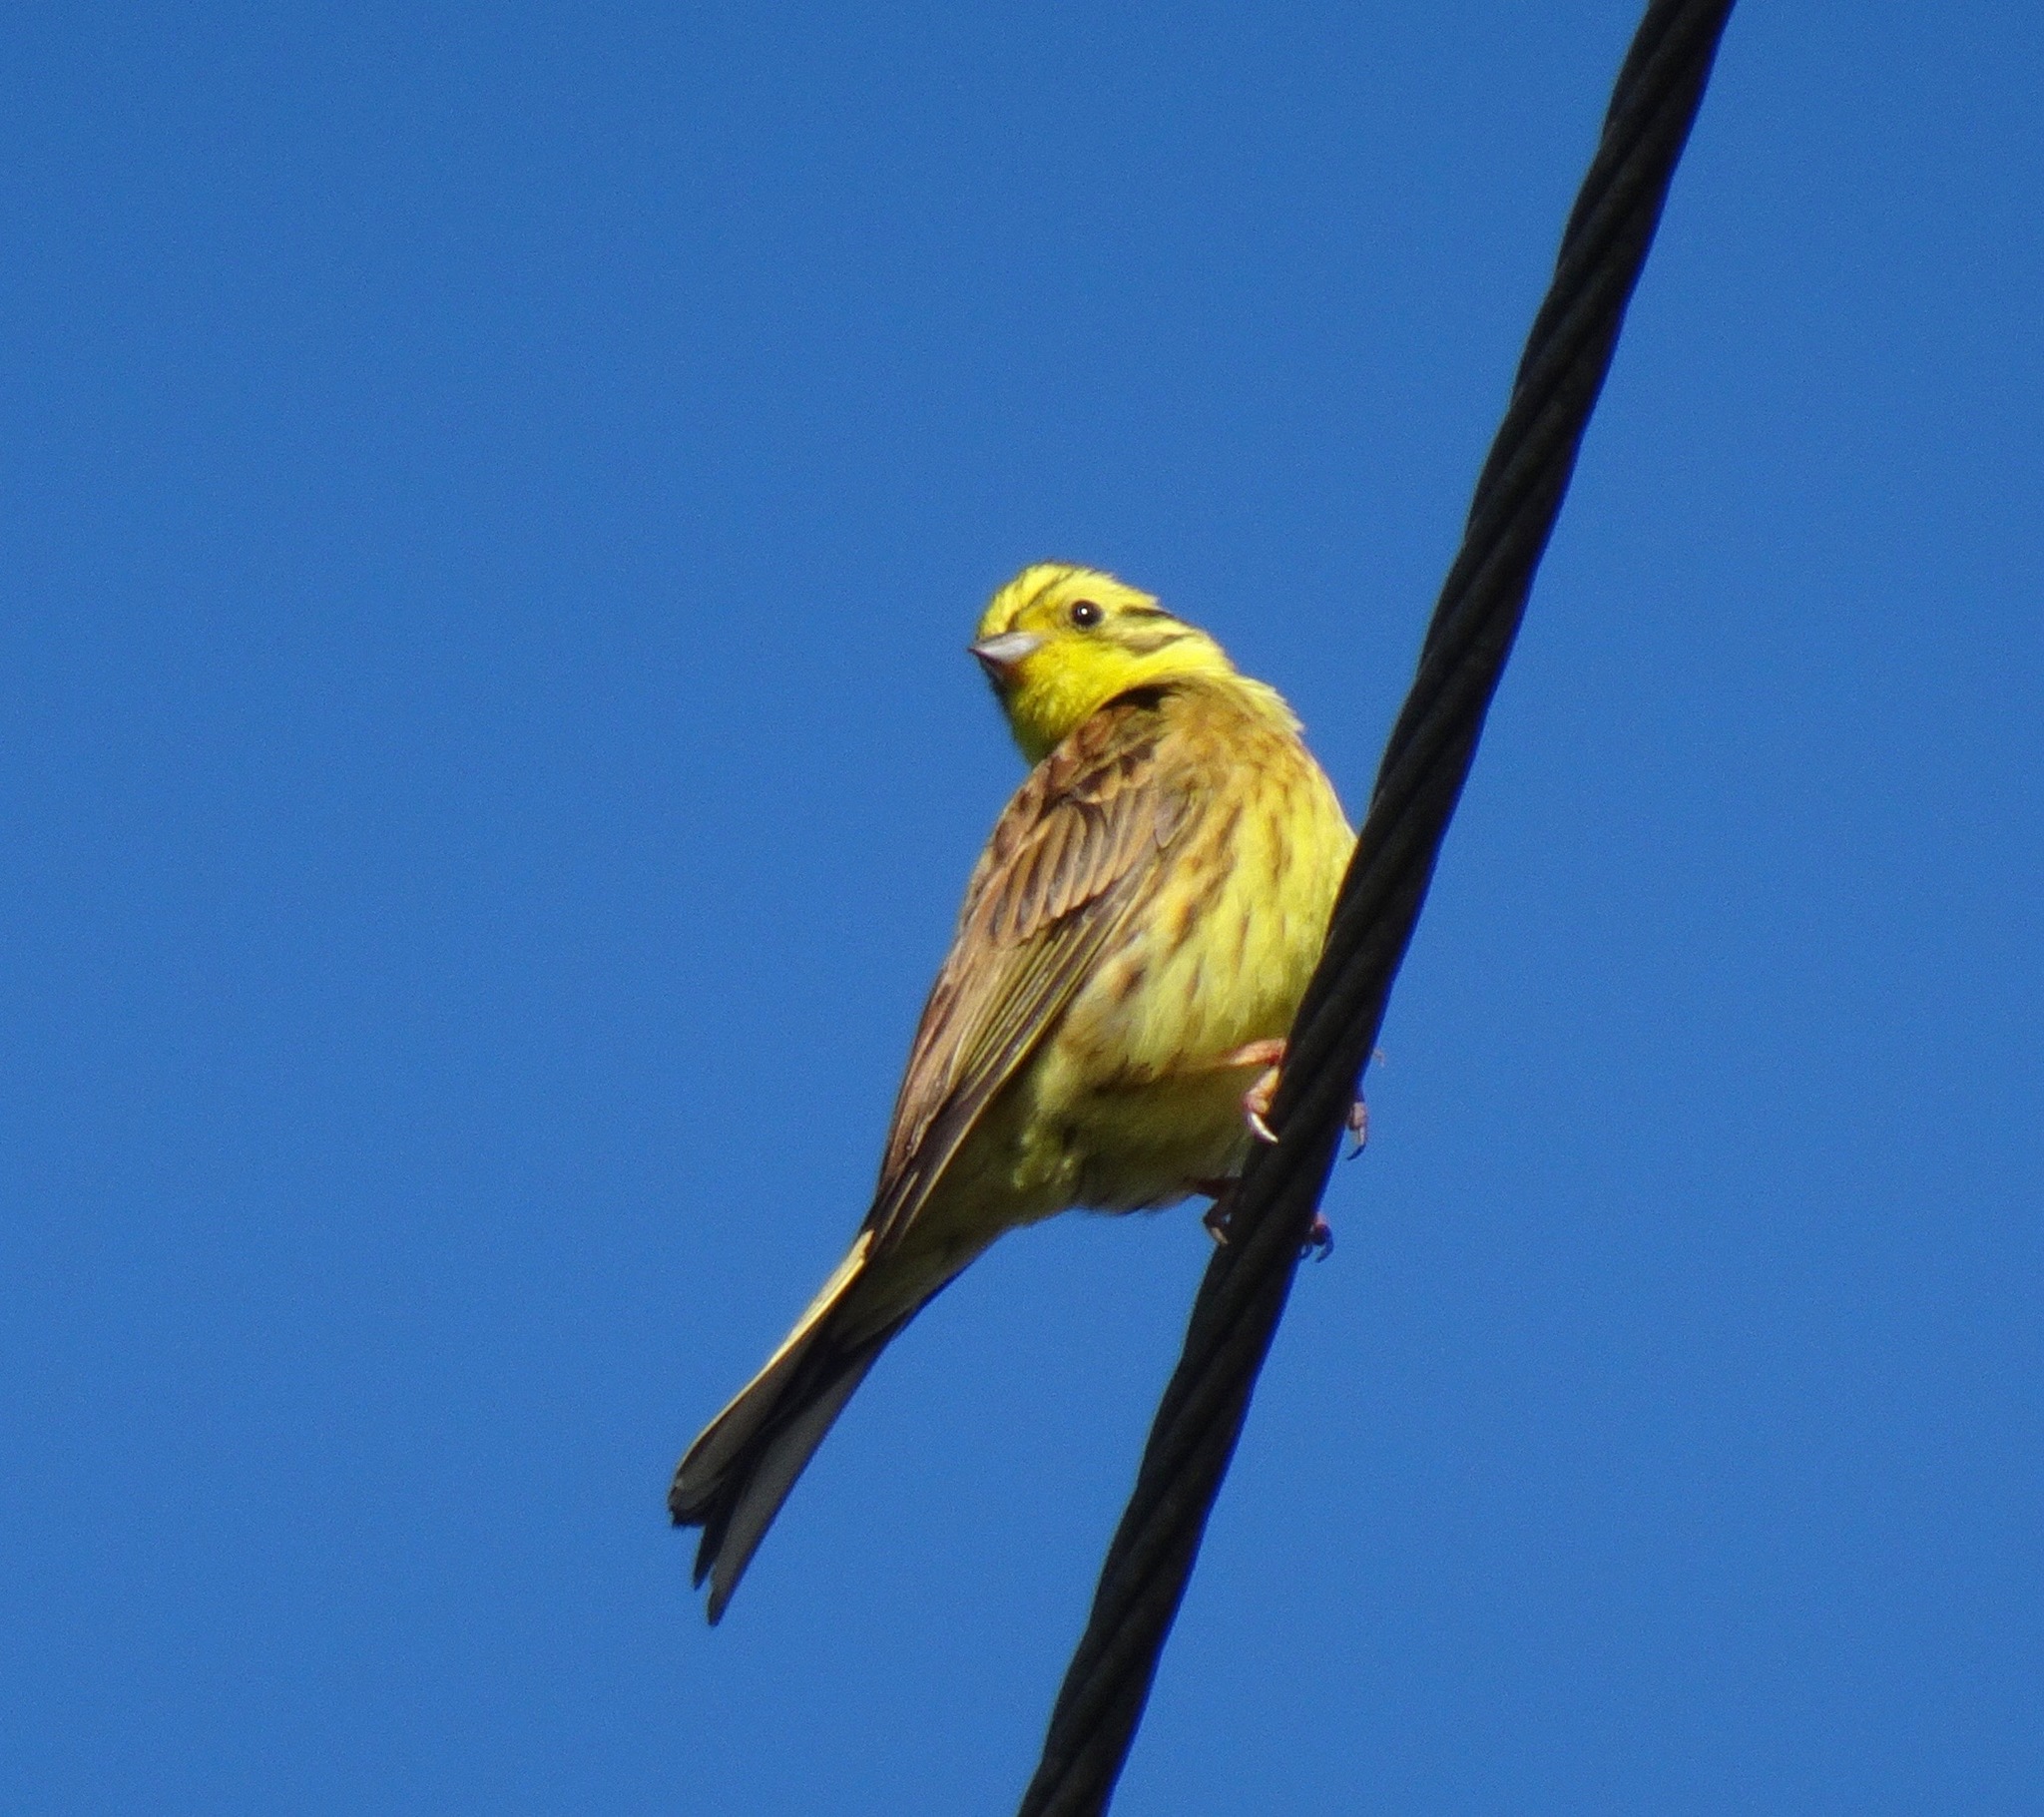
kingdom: Animalia
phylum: Chordata
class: Aves
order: Passeriformes
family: Emberizidae
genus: Emberiza
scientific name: Emberiza citrinella
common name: Yellowhammer
